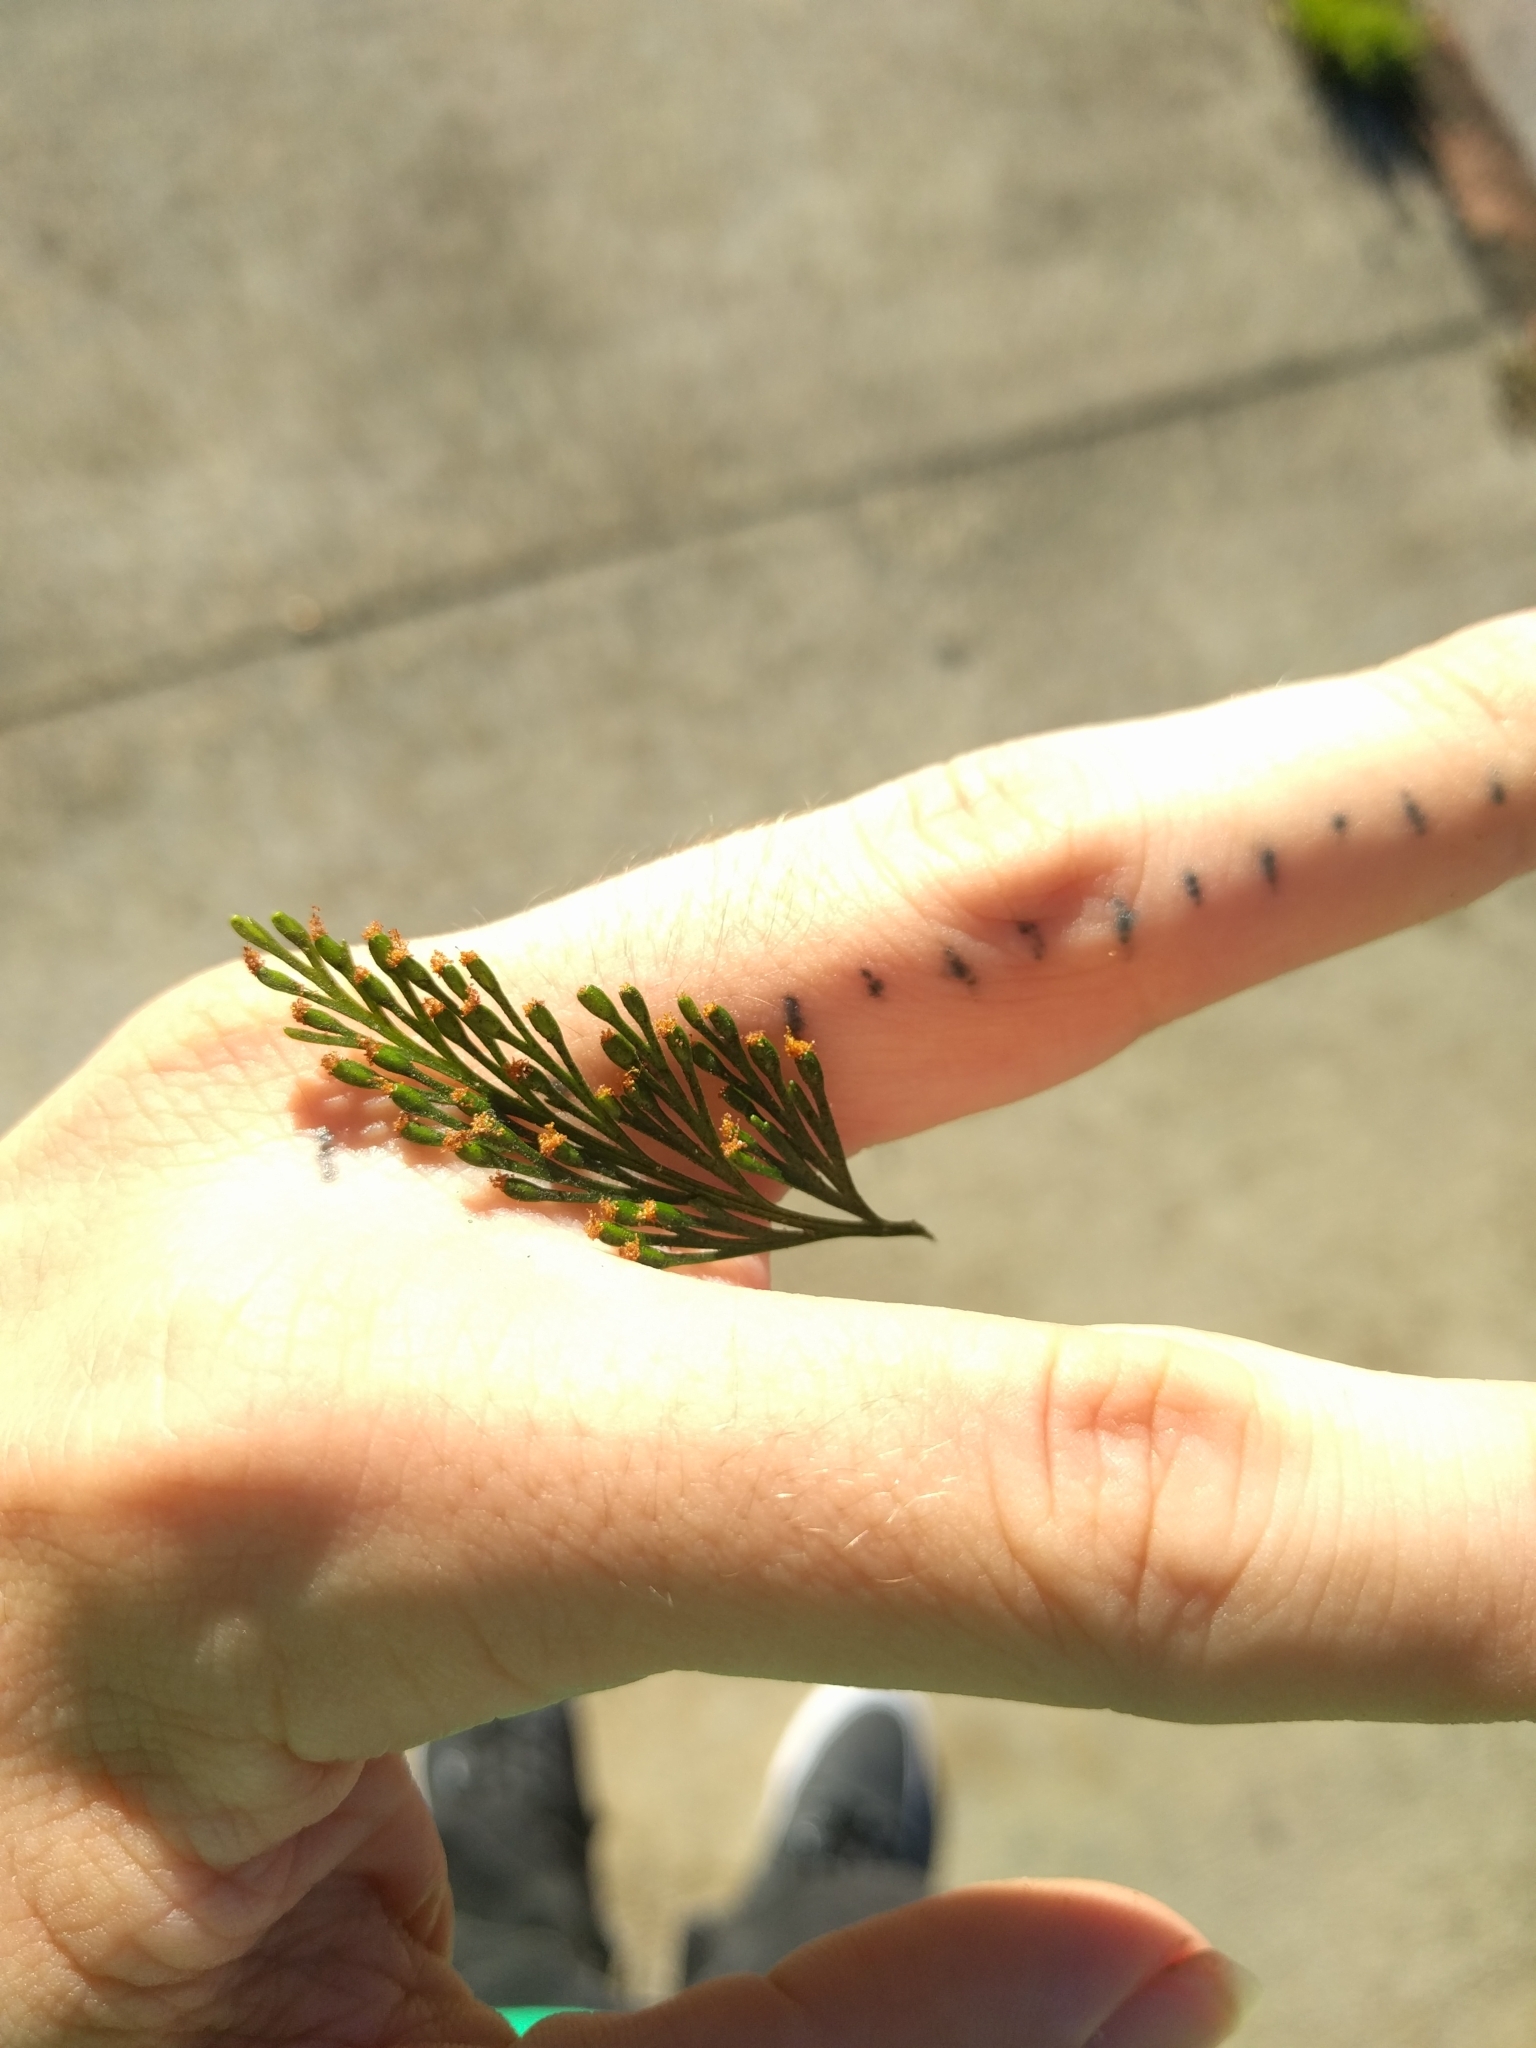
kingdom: Plantae
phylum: Tracheophyta
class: Polypodiopsida
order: Polypodiales
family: Davalliaceae
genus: Davallia
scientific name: Davallia fejeensis
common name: Lacy hare's-foot fern
